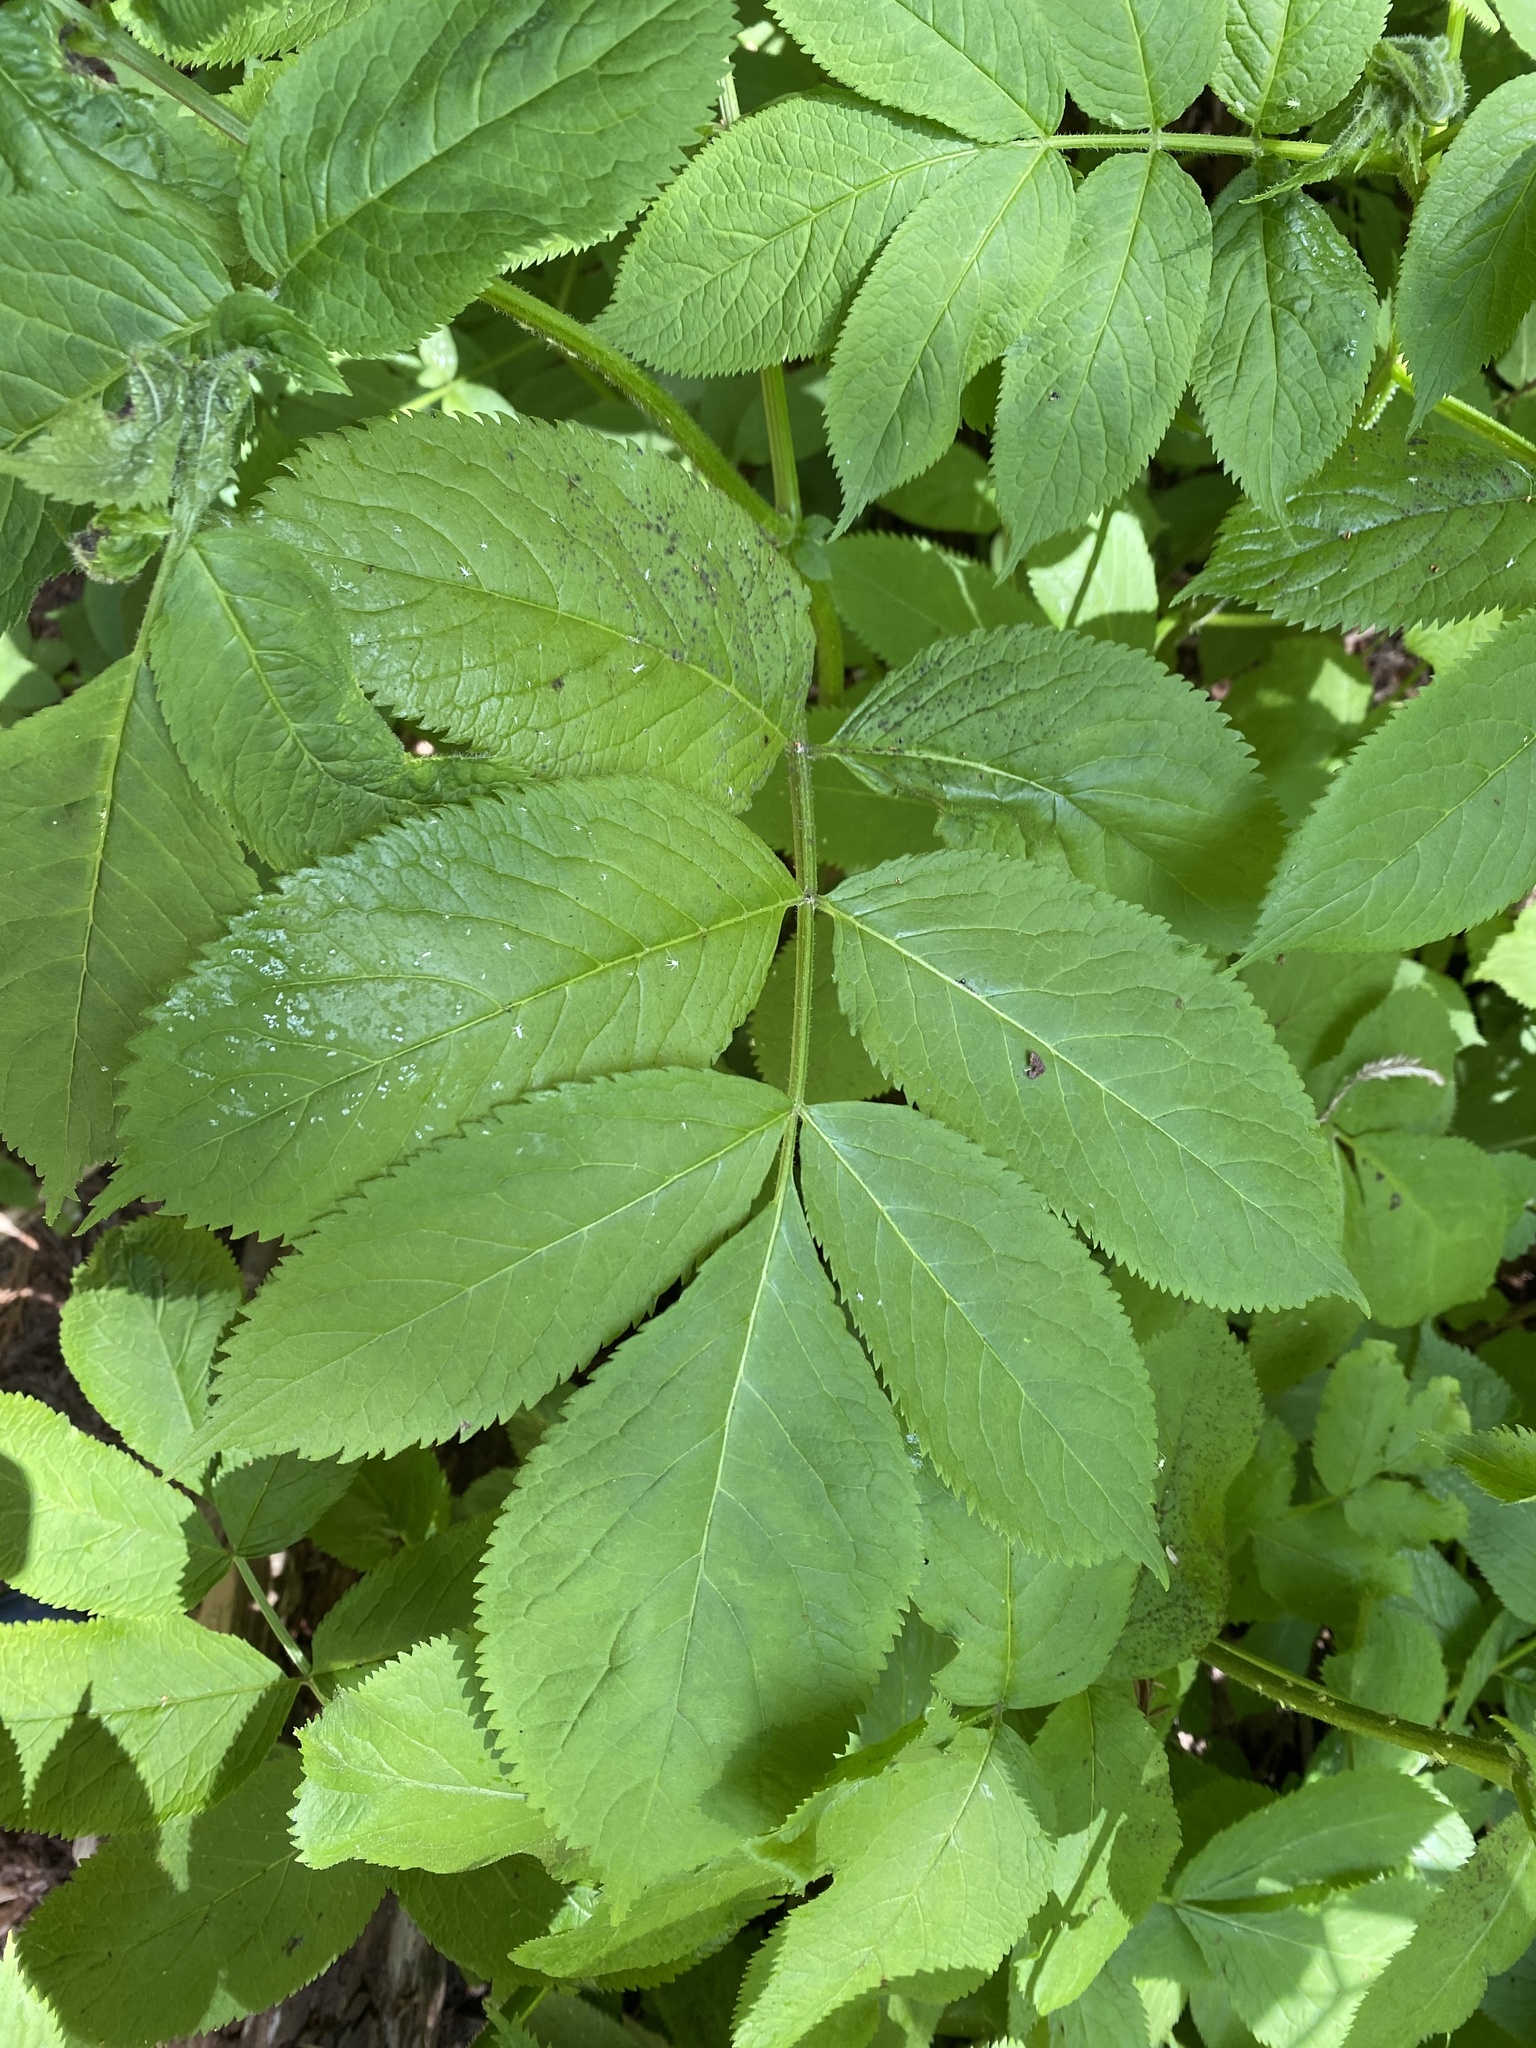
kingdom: Plantae
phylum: Tracheophyta
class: Magnoliopsida
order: Dipsacales
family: Viburnaceae
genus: Sambucus
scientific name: Sambucus racemosa
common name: Red-berried elder
